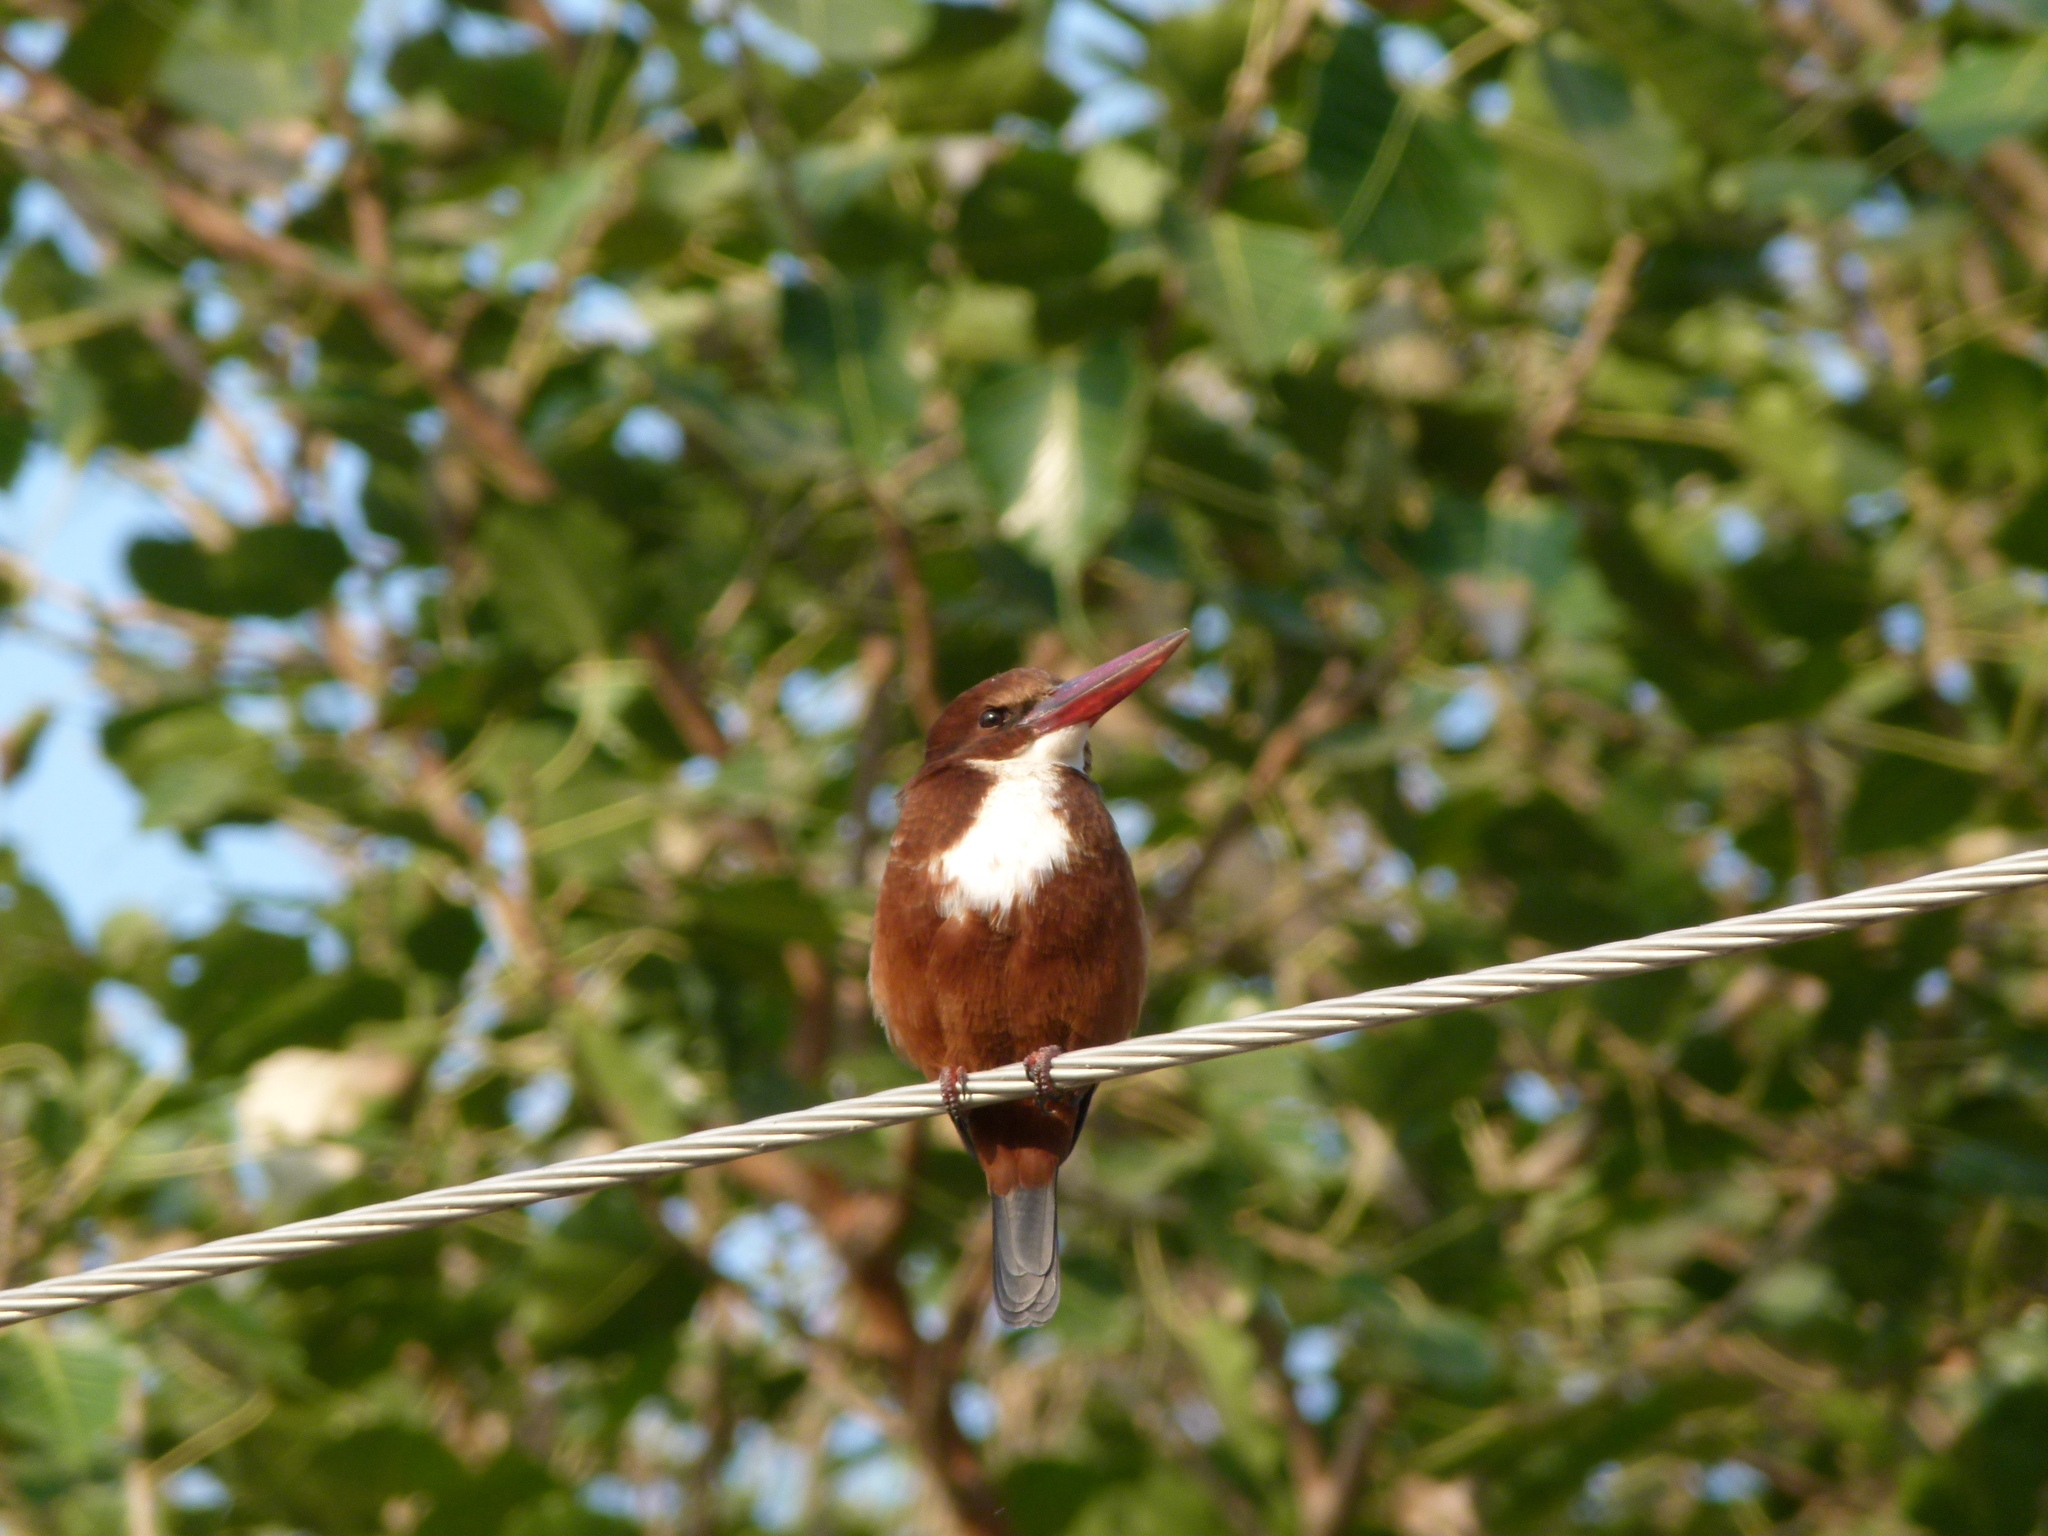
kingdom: Animalia
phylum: Chordata
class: Aves
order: Coraciiformes
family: Alcedinidae
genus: Halcyon
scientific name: Halcyon smyrnensis
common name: White-throated kingfisher
